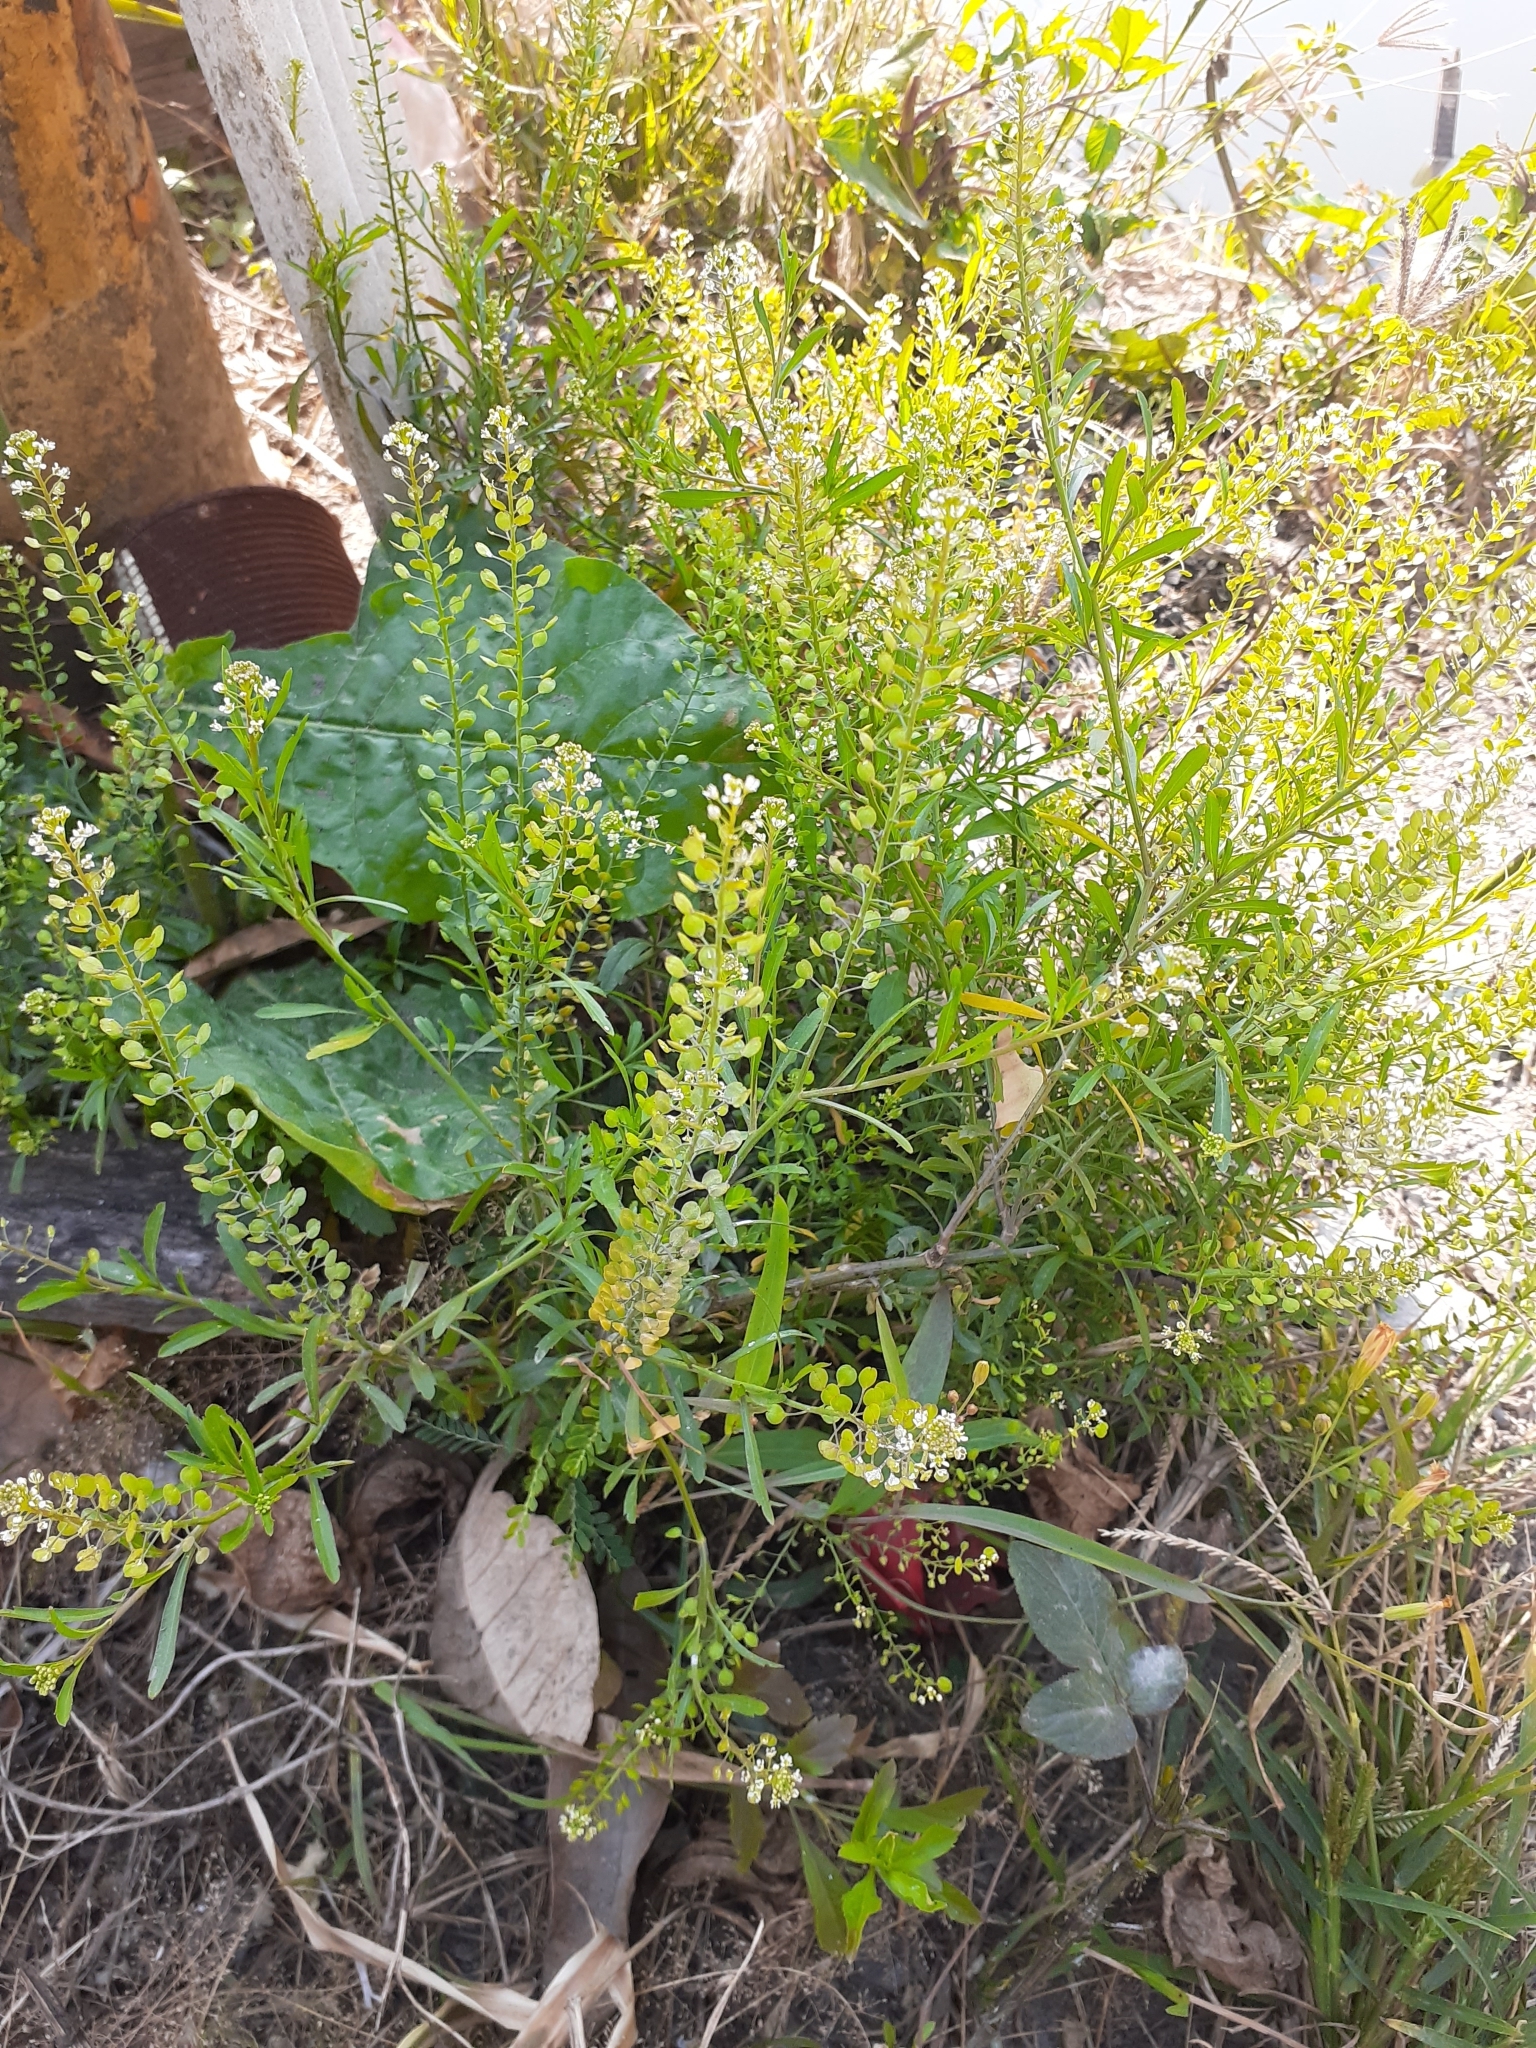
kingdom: Plantae
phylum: Tracheophyta
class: Magnoliopsida
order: Brassicales
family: Brassicaceae
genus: Lepidium
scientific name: Lepidium virginicum
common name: Least pepperwort
